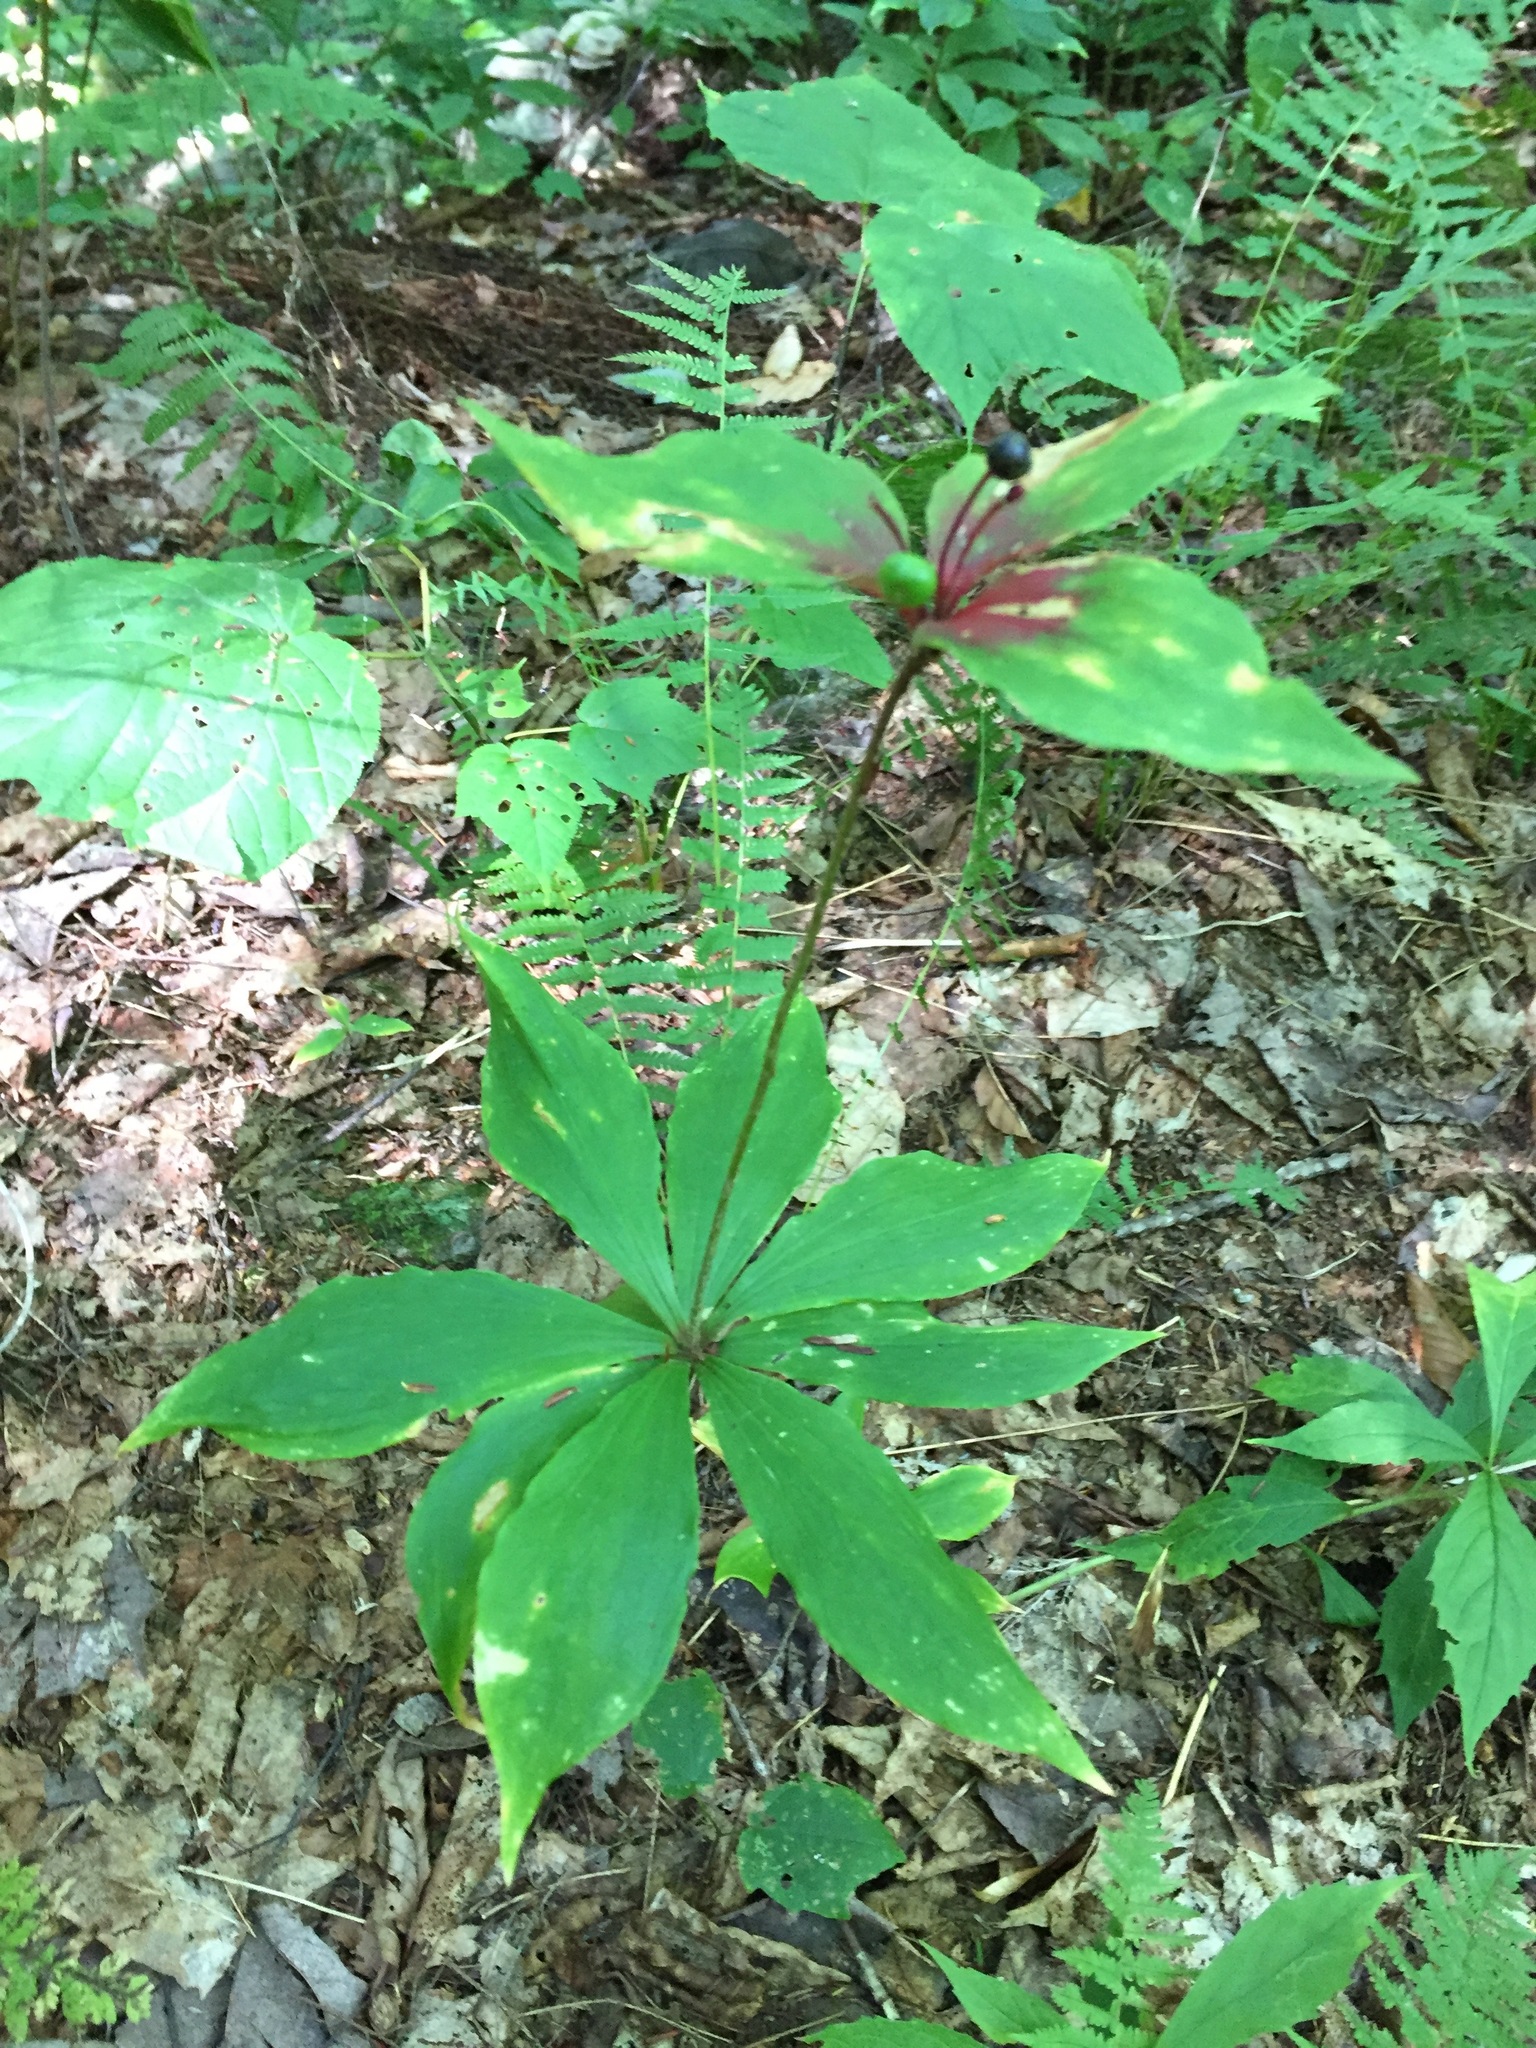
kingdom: Plantae
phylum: Tracheophyta
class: Liliopsida
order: Liliales
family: Liliaceae
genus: Medeola
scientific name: Medeola virginiana
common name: Indian cucumber-root
